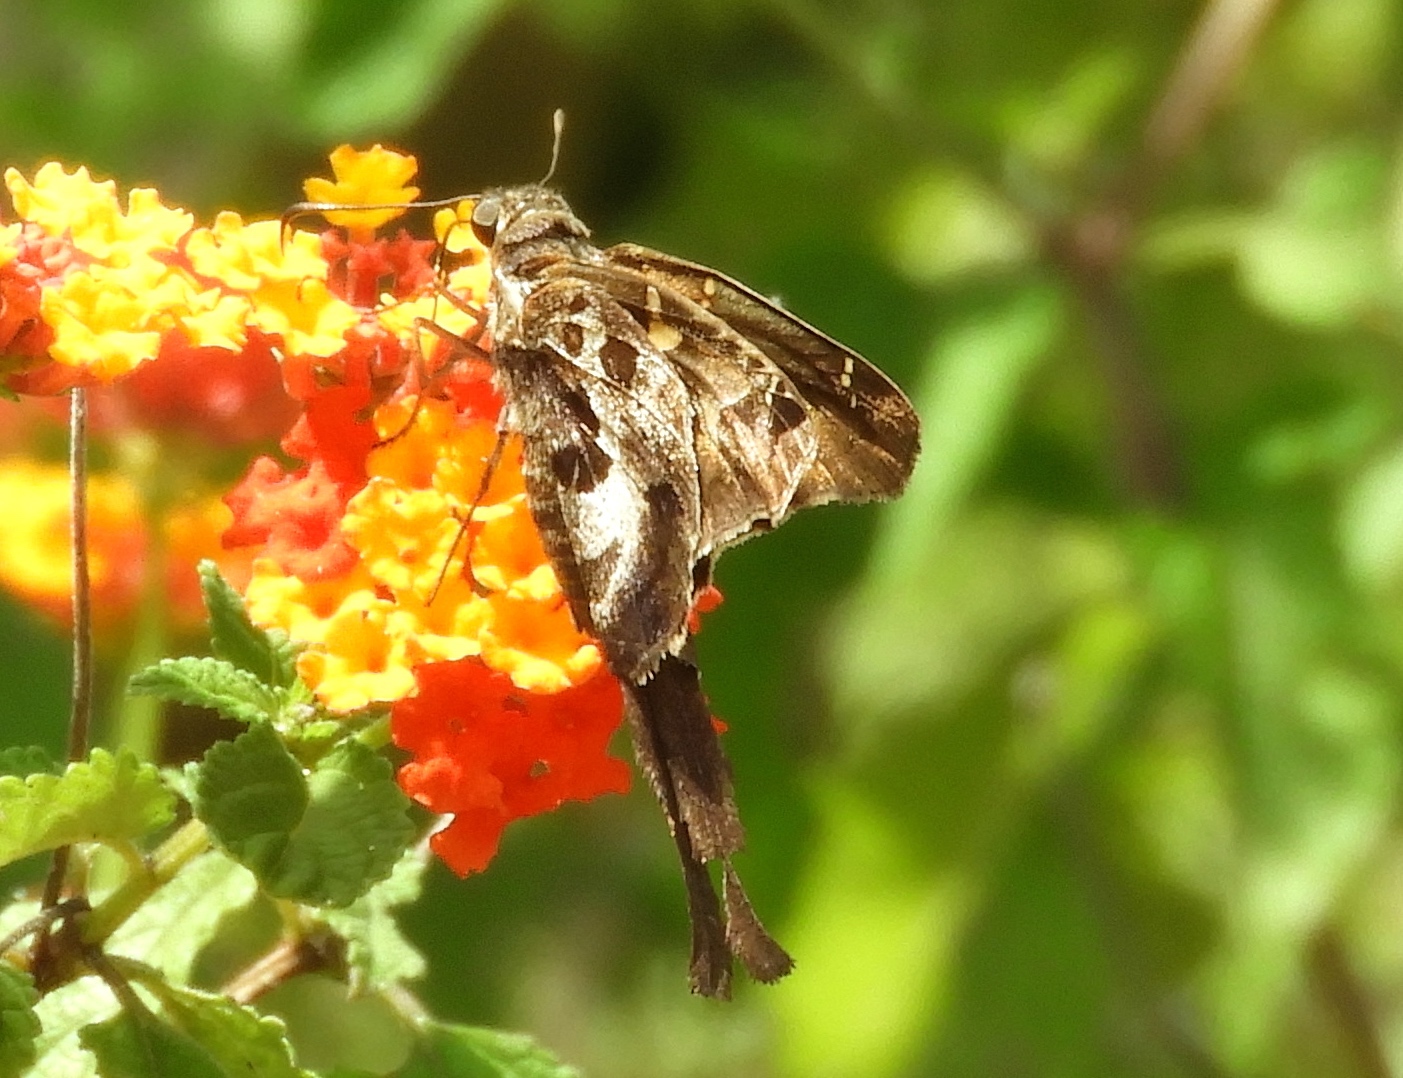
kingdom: Animalia
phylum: Arthropoda
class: Insecta
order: Lepidoptera
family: Hesperiidae
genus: Chioides
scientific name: Chioides zilpa
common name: Zilpa longtail
